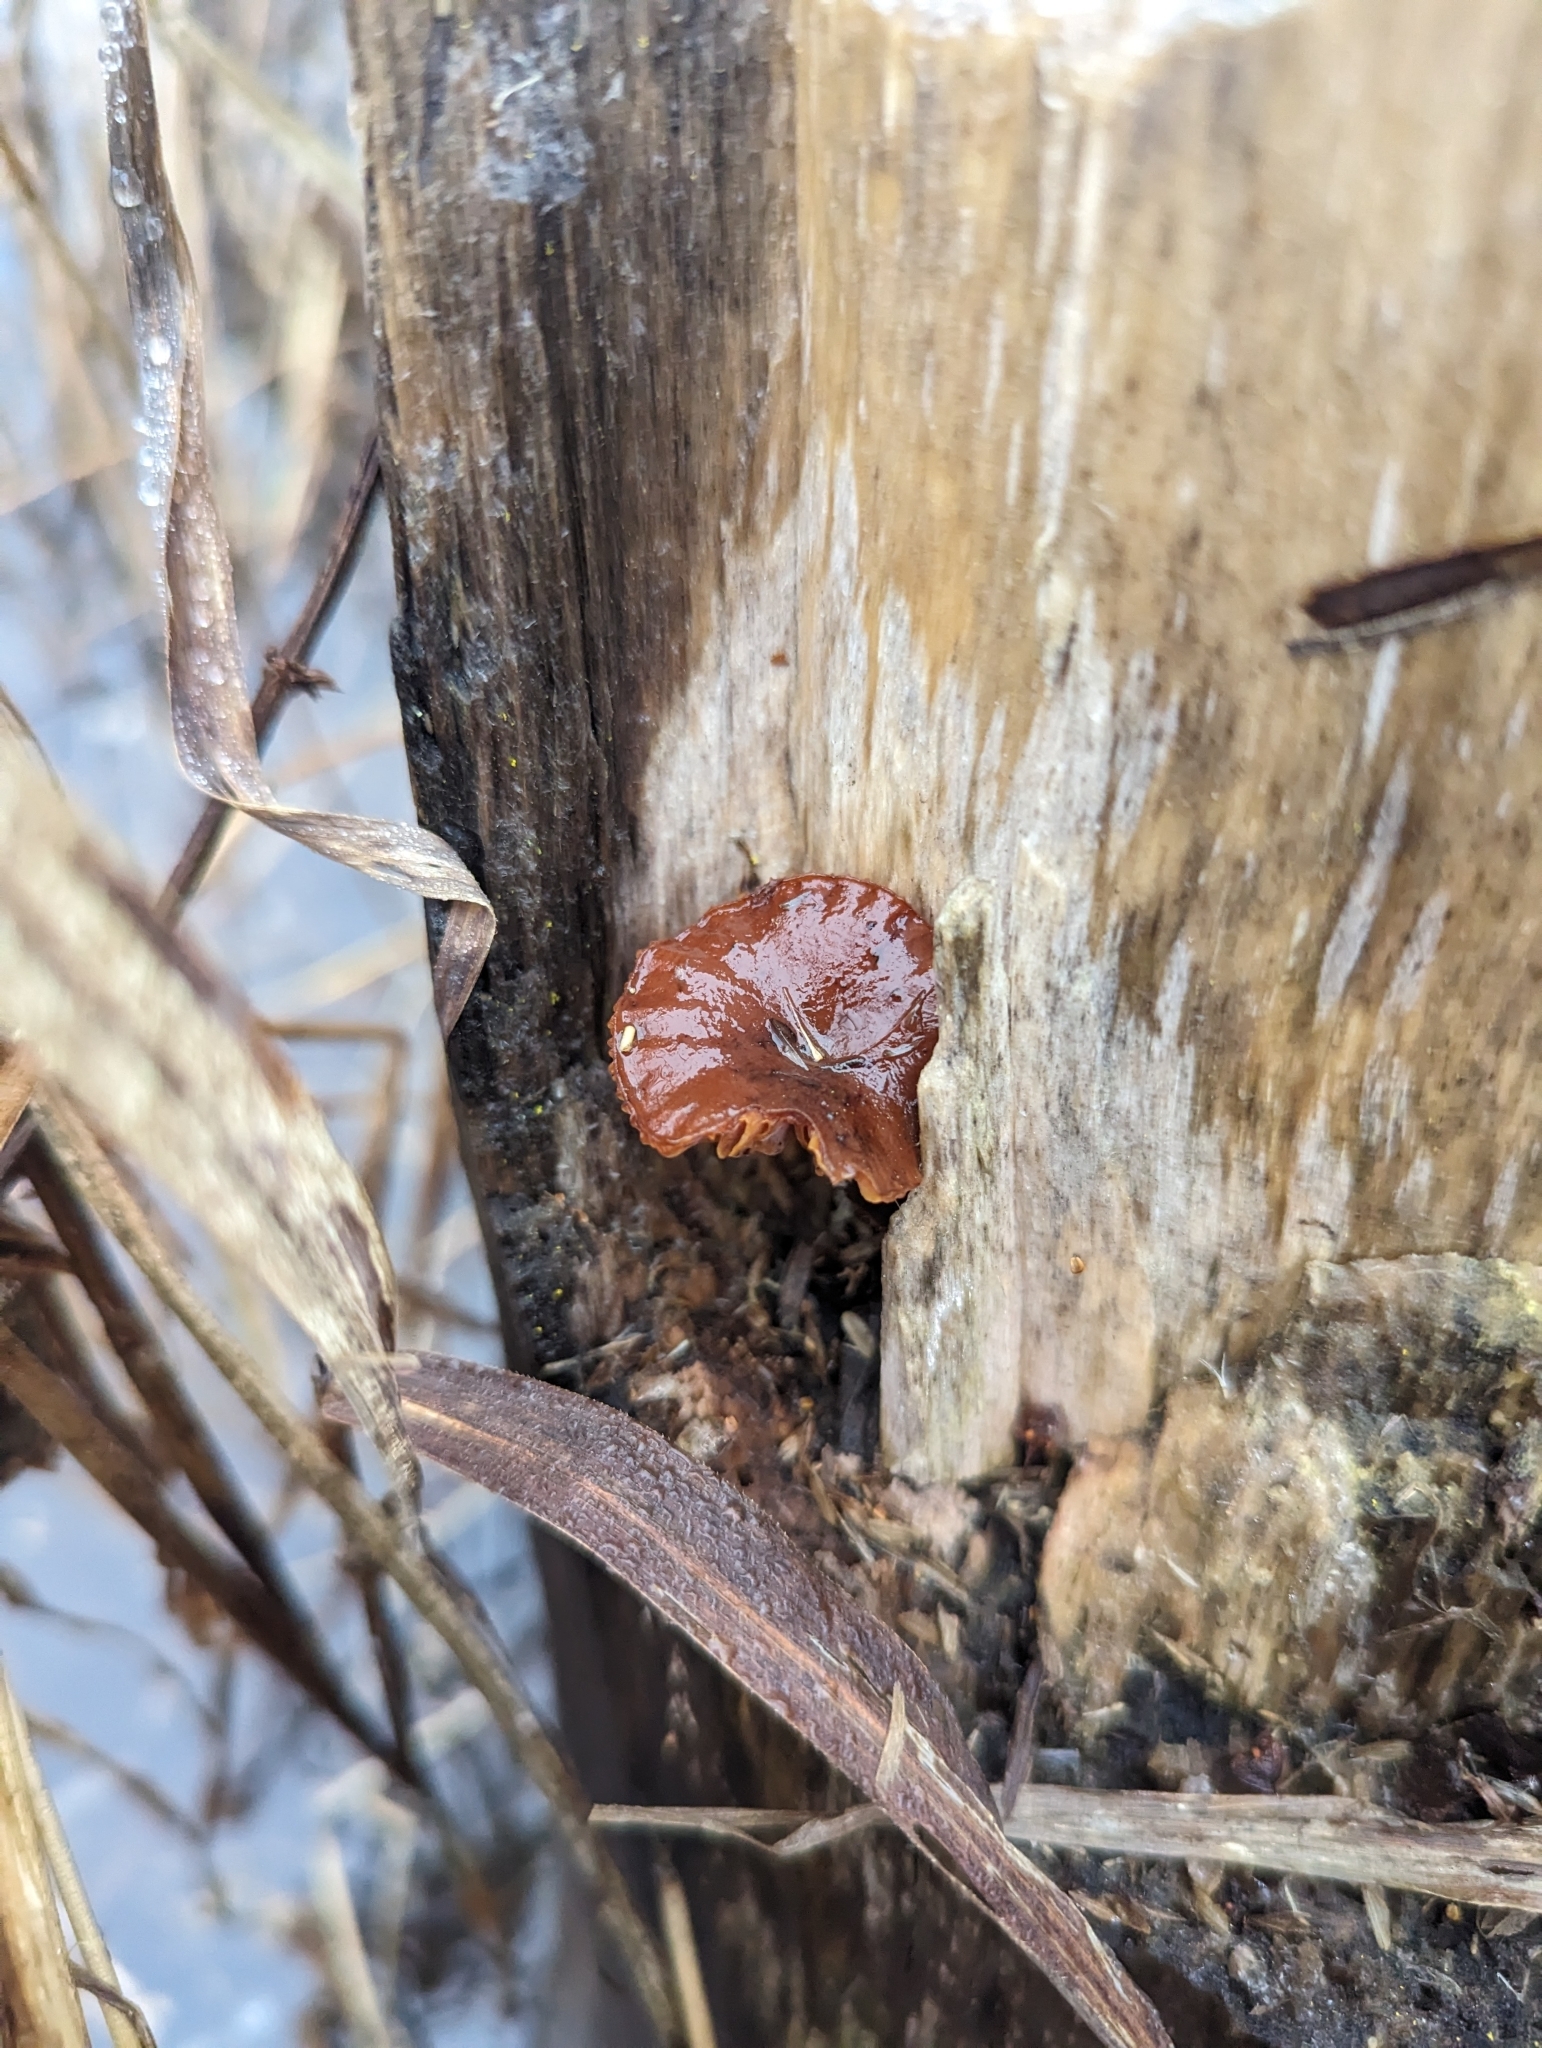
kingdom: Fungi
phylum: Basidiomycota
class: Agaricomycetes
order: Agaricales
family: Physalacriaceae
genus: Flammulina
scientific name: Flammulina velutipes
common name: Velvet shank
